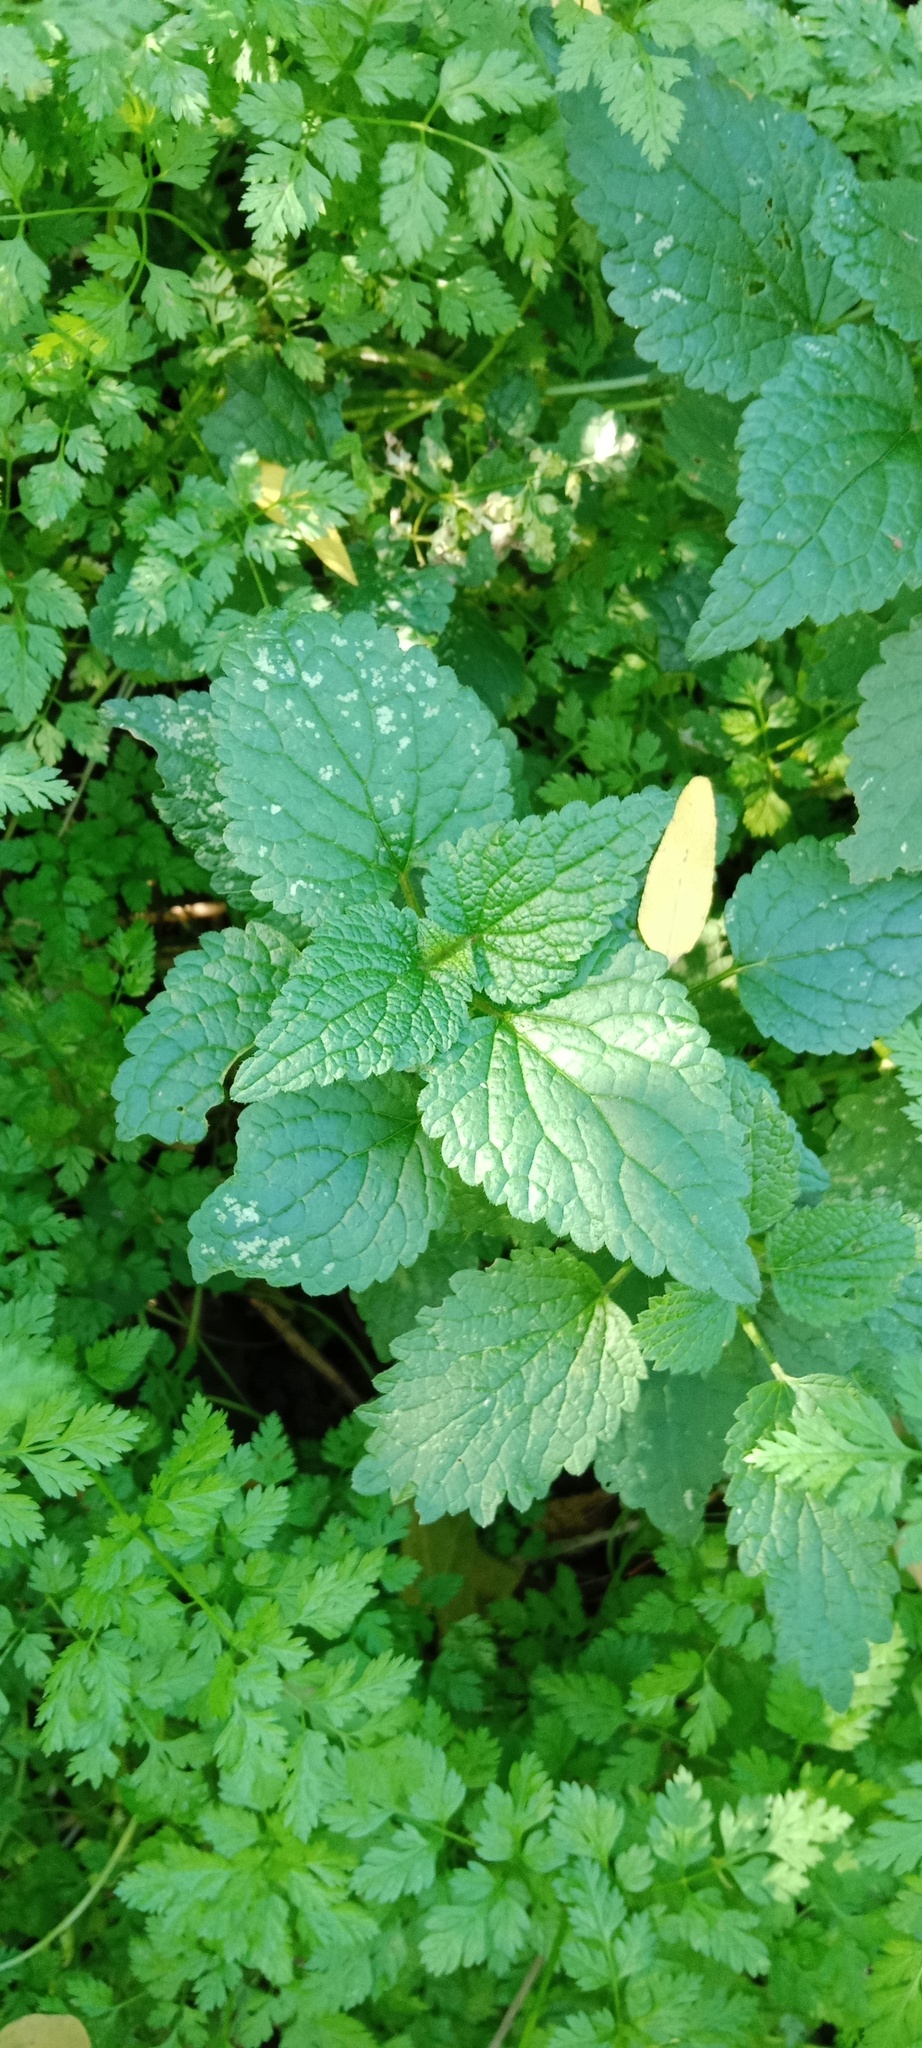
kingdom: Plantae
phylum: Tracheophyta
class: Magnoliopsida
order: Lamiales
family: Lamiaceae
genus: Lamium
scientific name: Lamium album
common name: White dead-nettle
